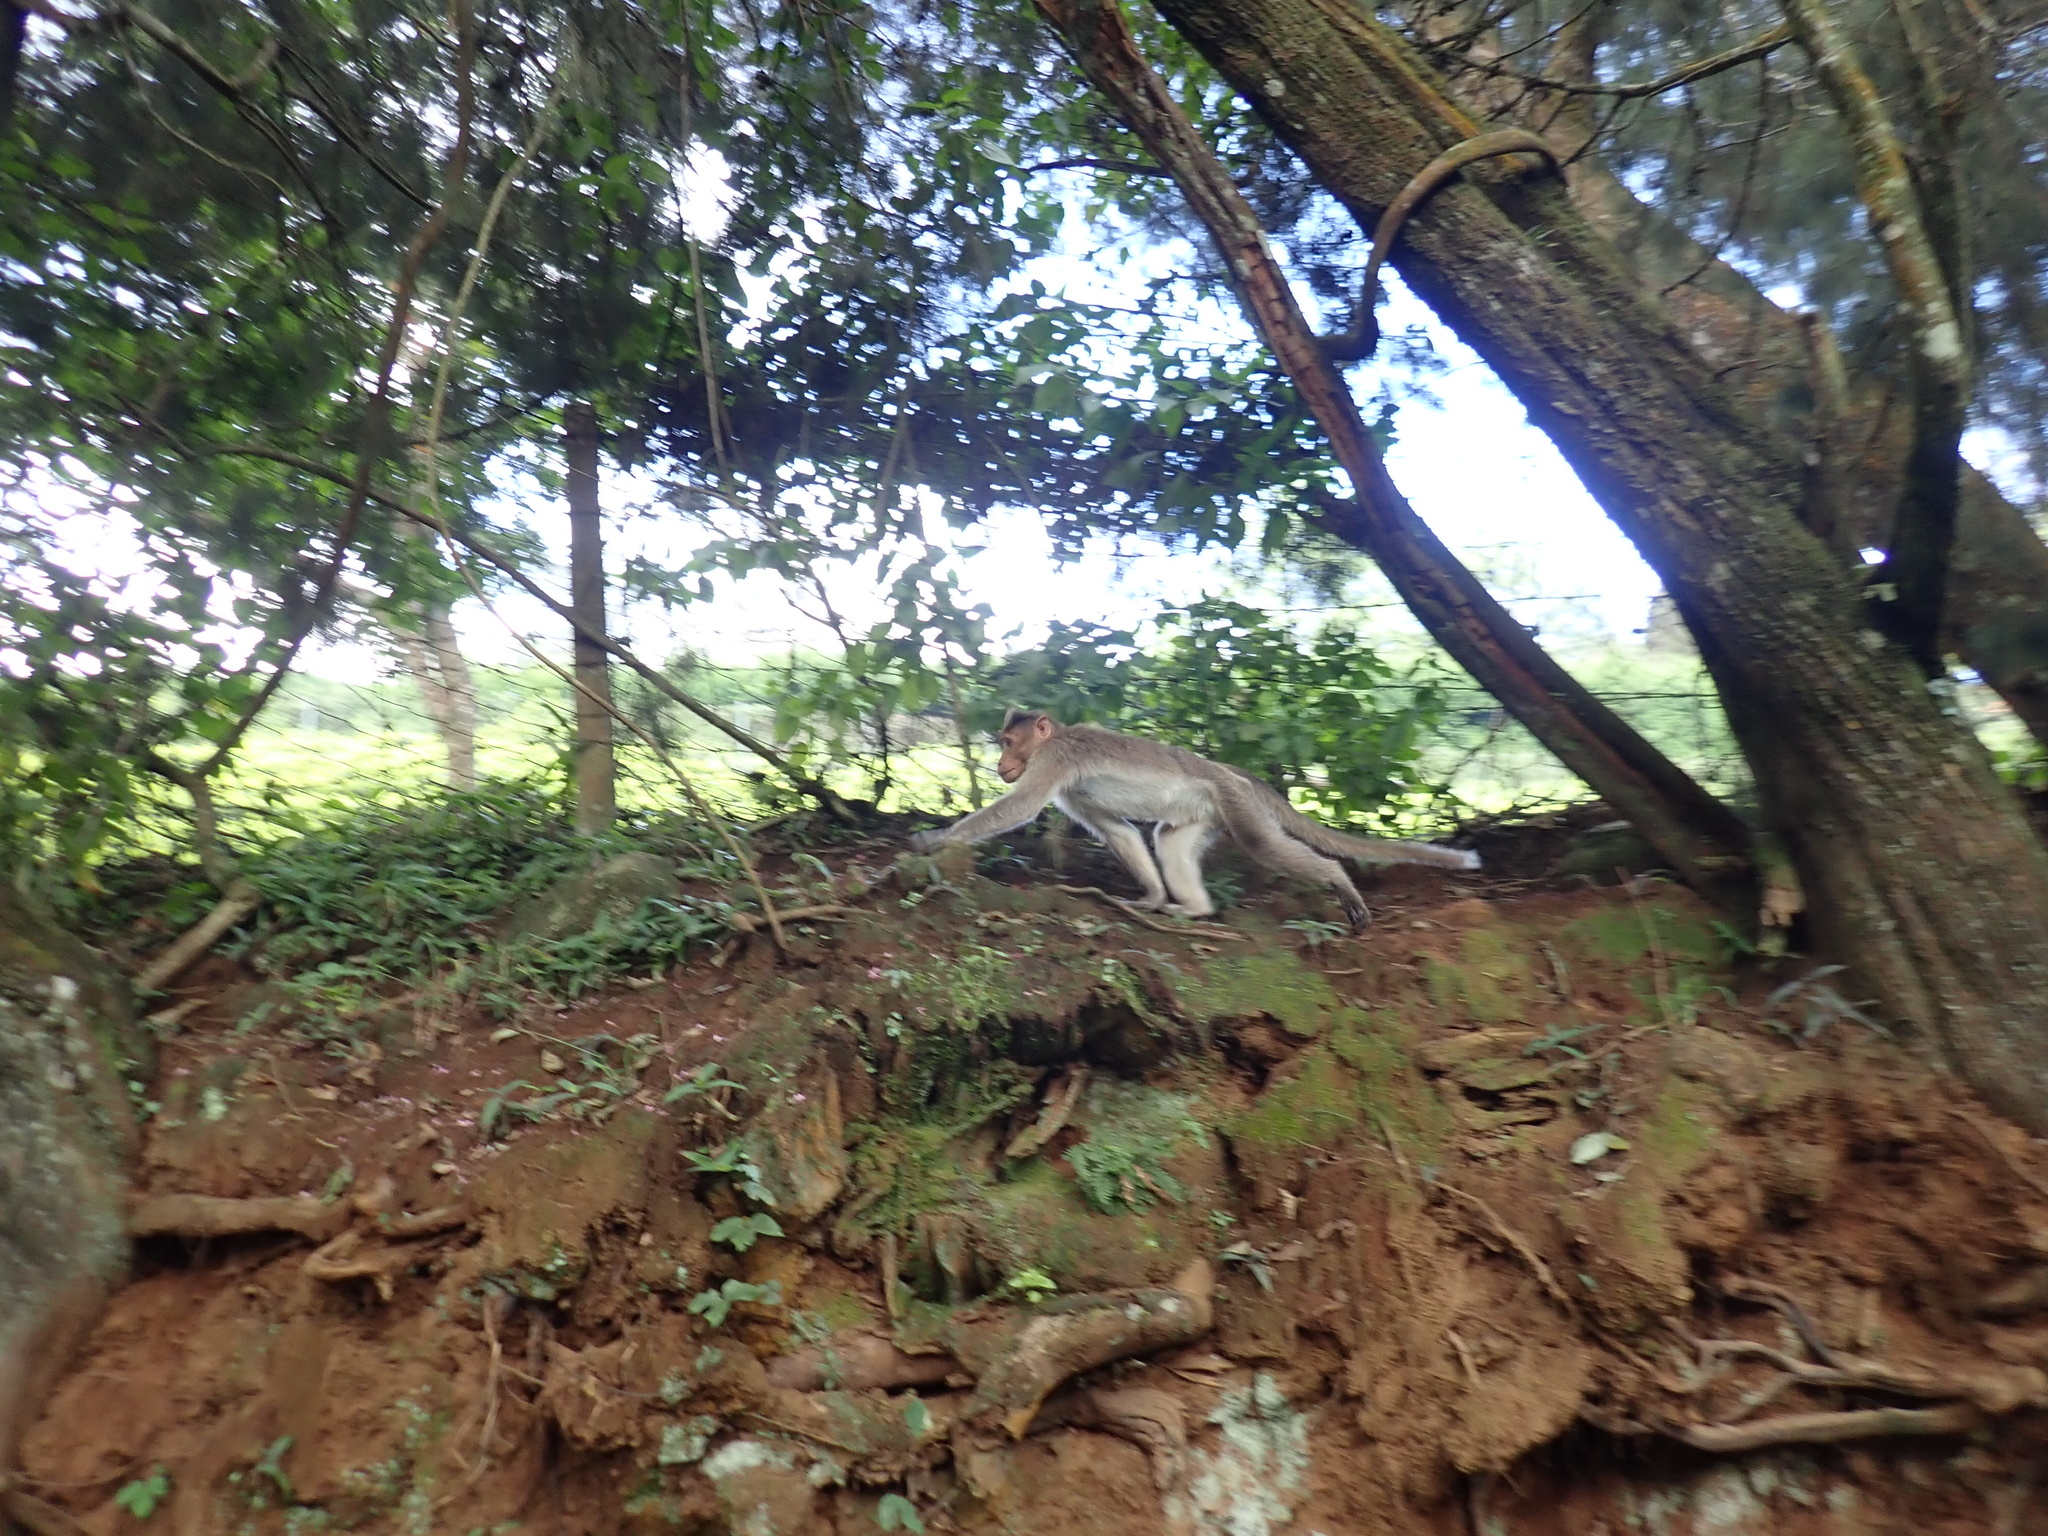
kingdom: Animalia
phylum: Chordata
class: Mammalia
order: Primates
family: Cercopithecidae
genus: Macaca
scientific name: Macaca radiata
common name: Bonnet macaque
